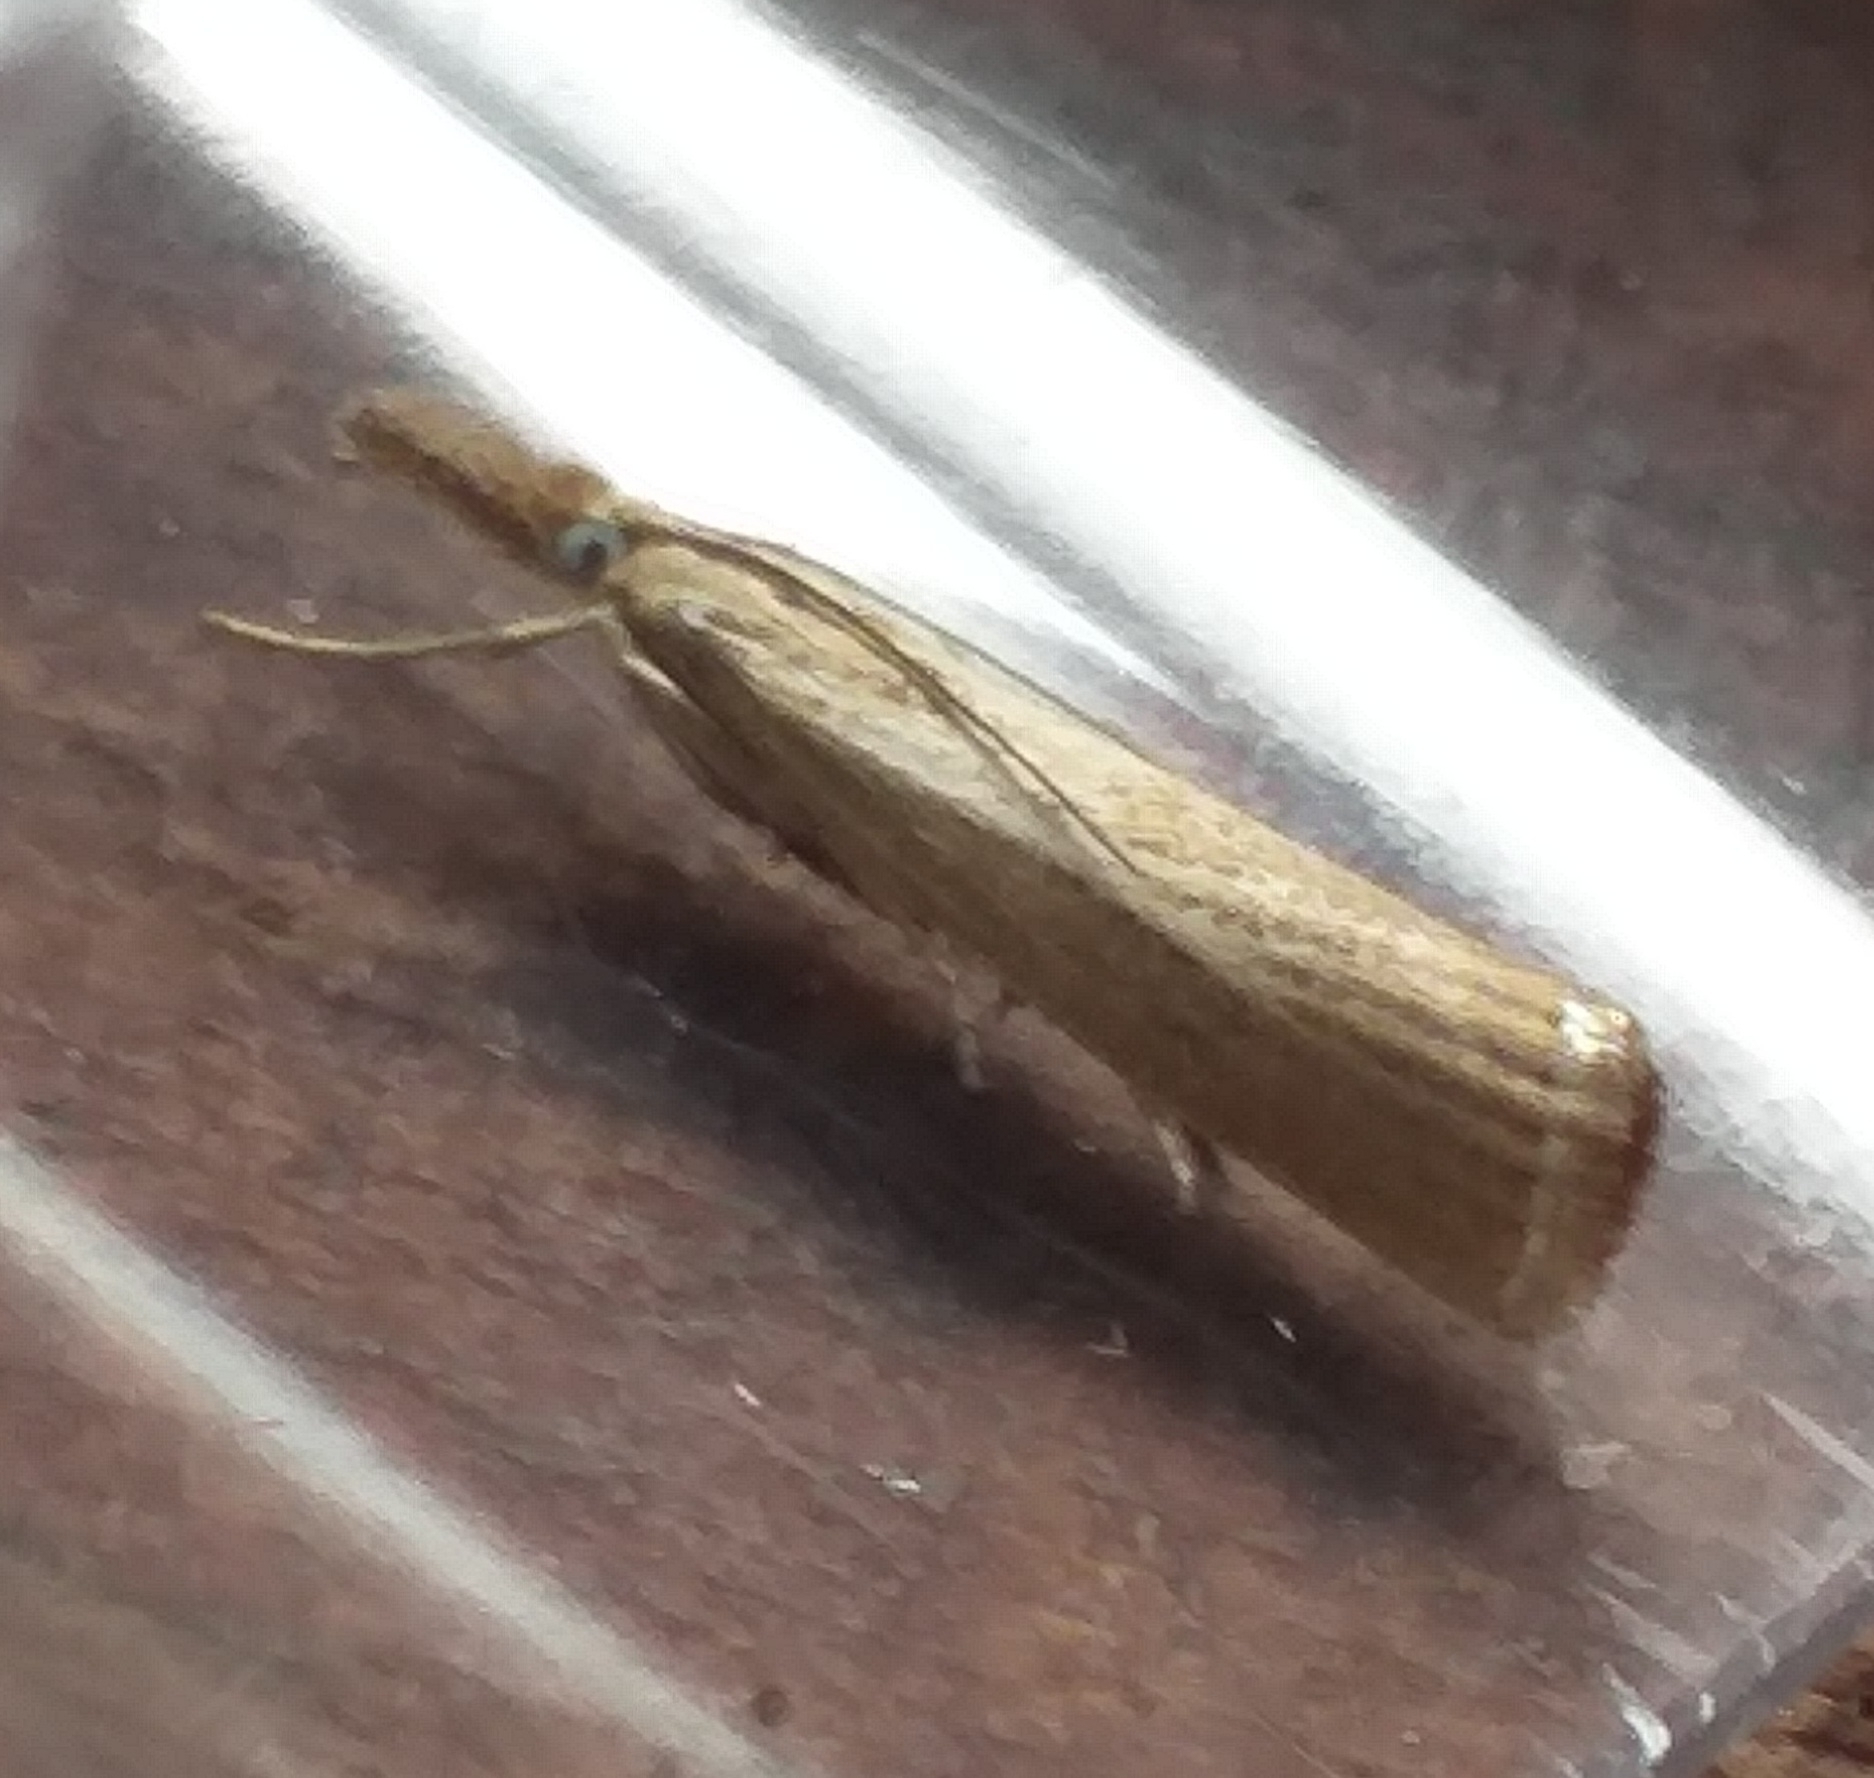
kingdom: Animalia
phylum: Arthropoda
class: Insecta
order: Lepidoptera
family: Crambidae
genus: Agriphila
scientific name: Agriphila straminella
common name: Straw grass-veneer
